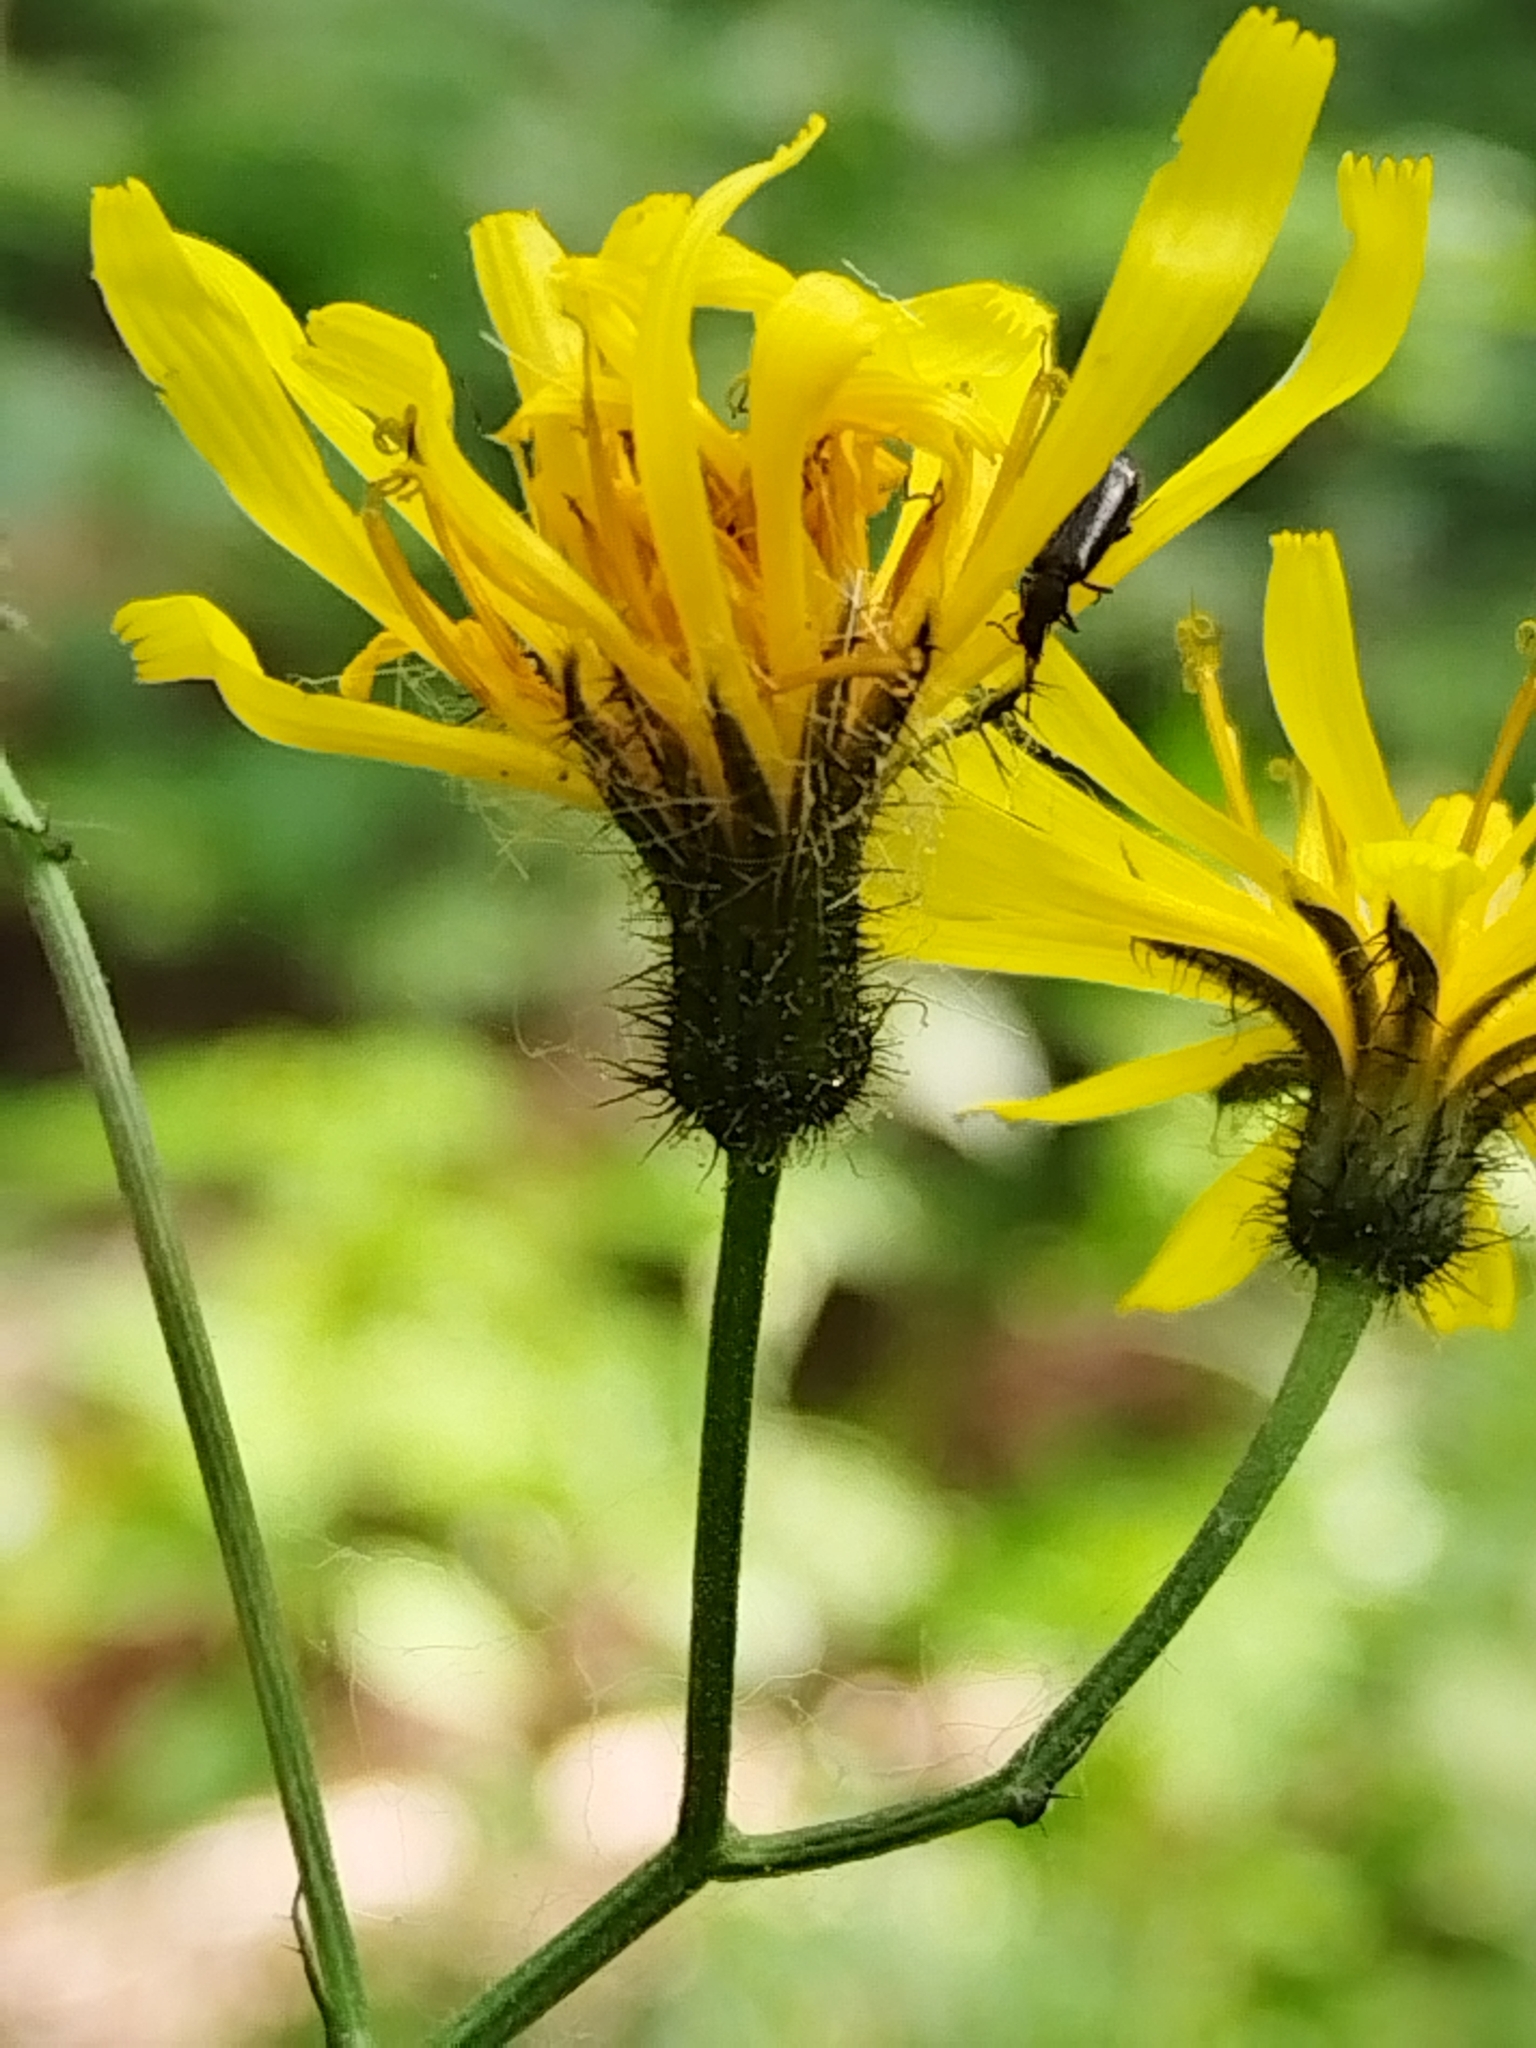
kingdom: Plantae
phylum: Tracheophyta
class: Magnoliopsida
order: Asterales
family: Asteraceae
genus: Crepis
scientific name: Crepis paludosa
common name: Marsh hawk's-beard
